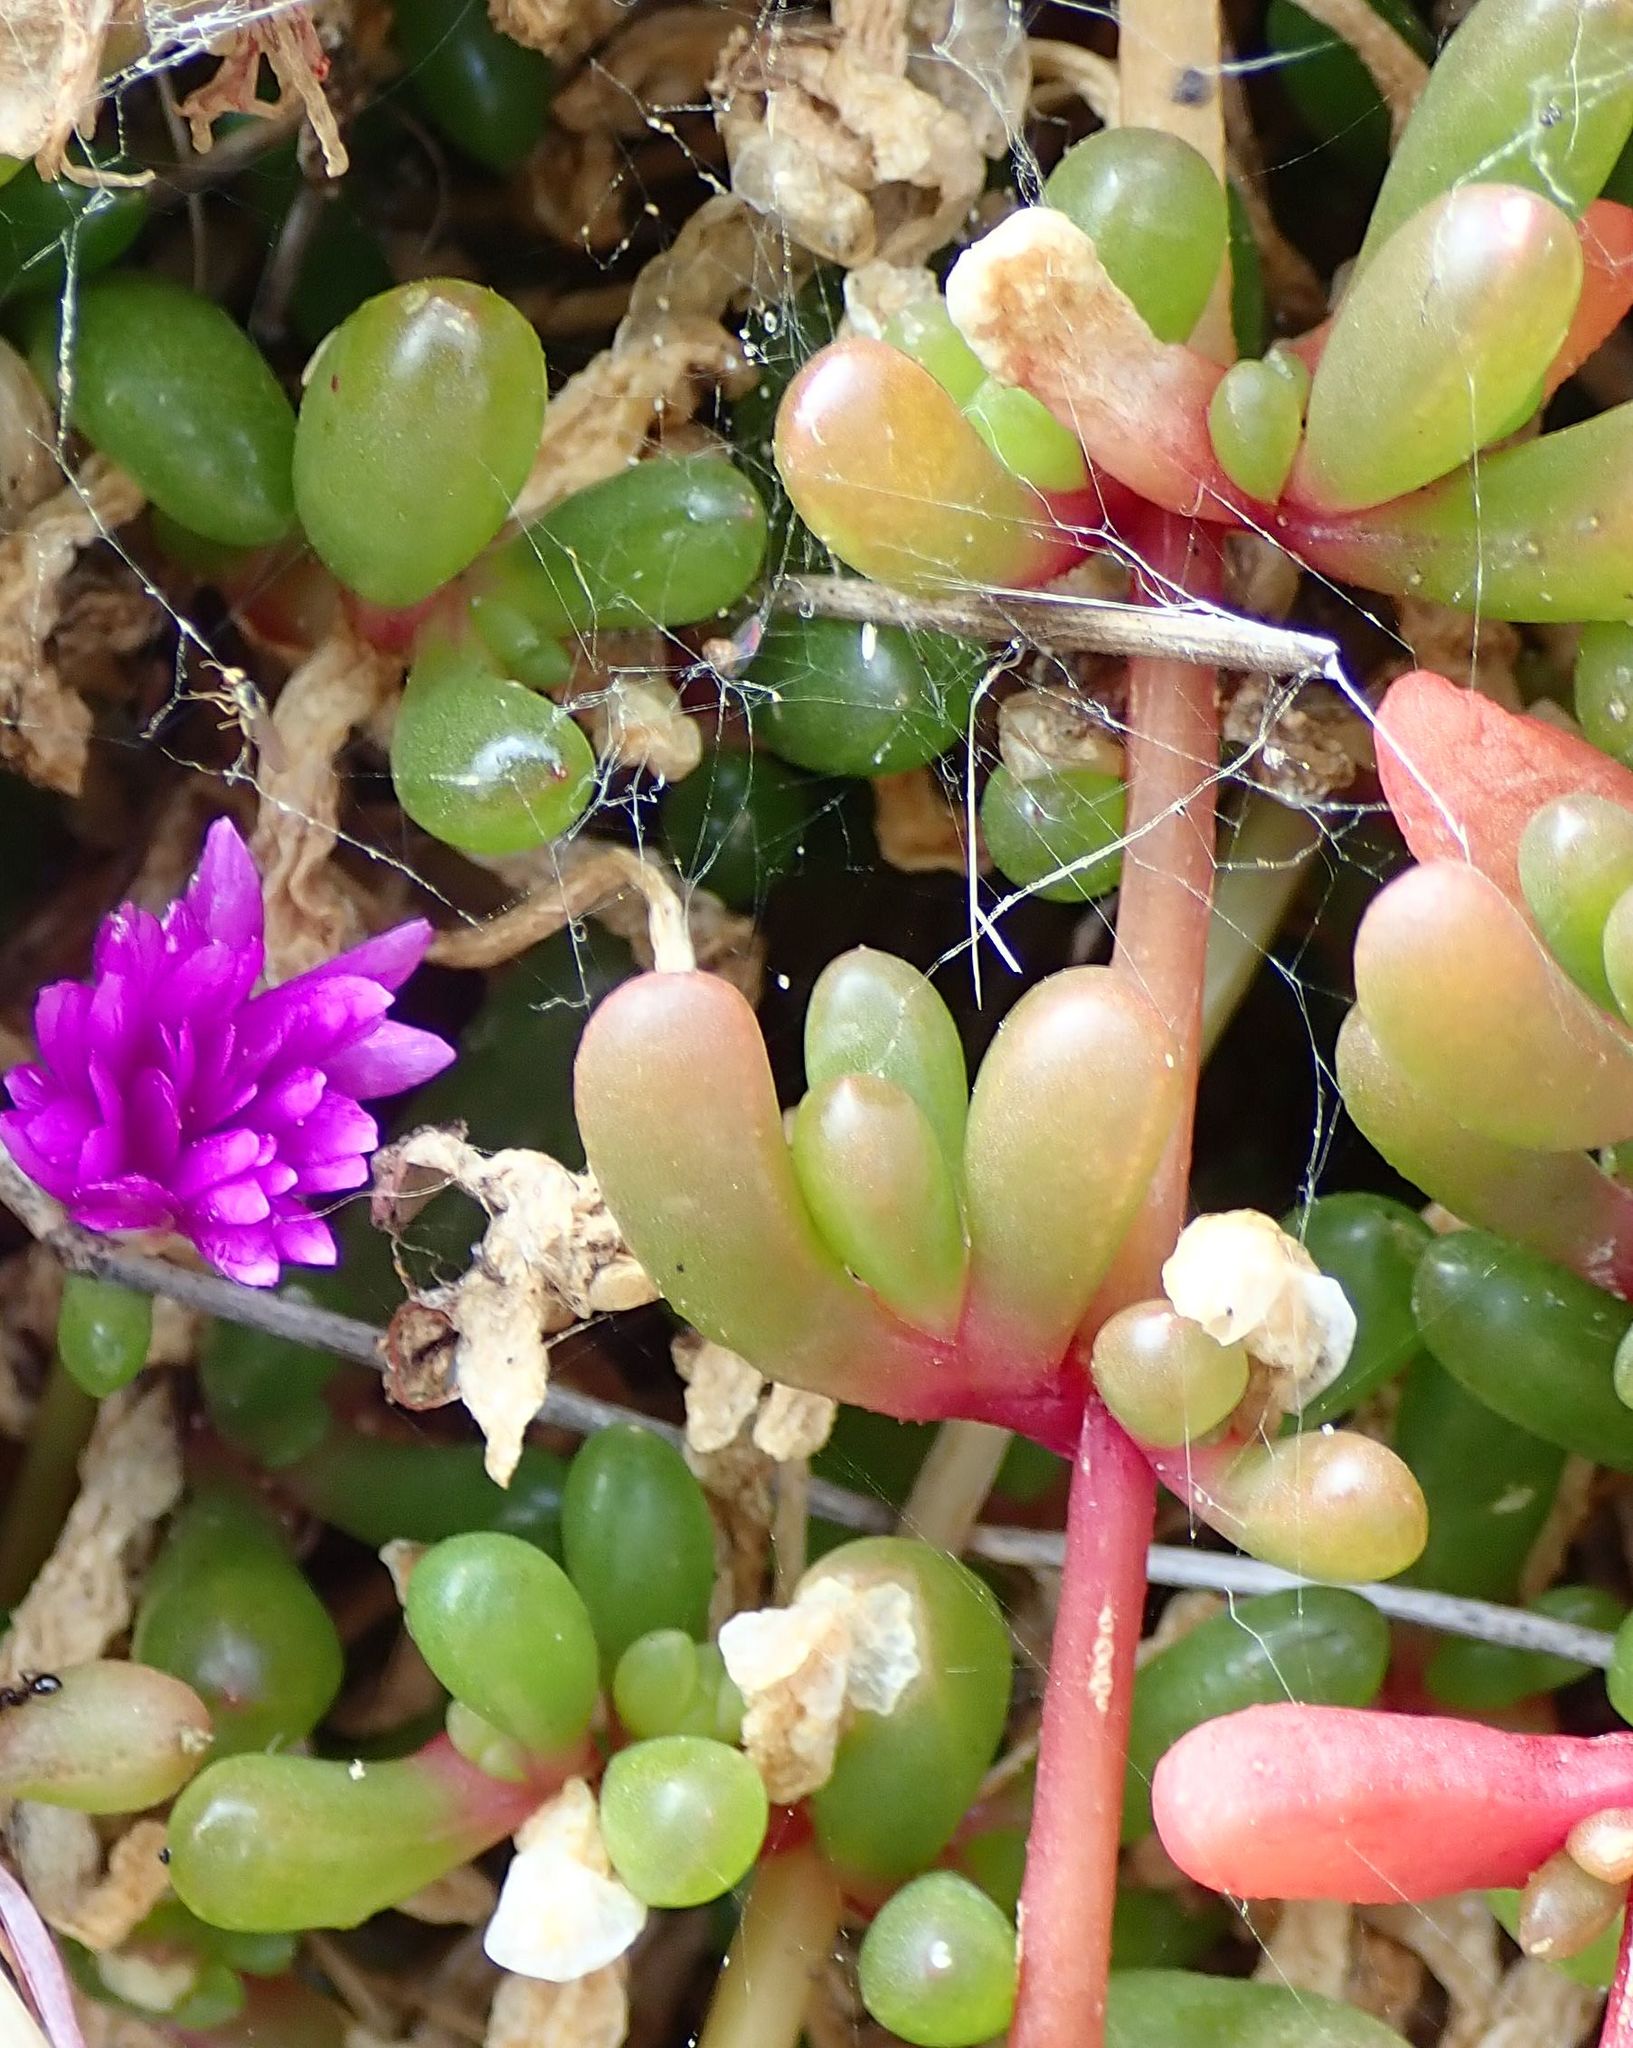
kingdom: Plantae
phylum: Tracheophyta
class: Magnoliopsida
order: Caryophyllales
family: Aizoaceae
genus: Disphyma
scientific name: Disphyma australe
